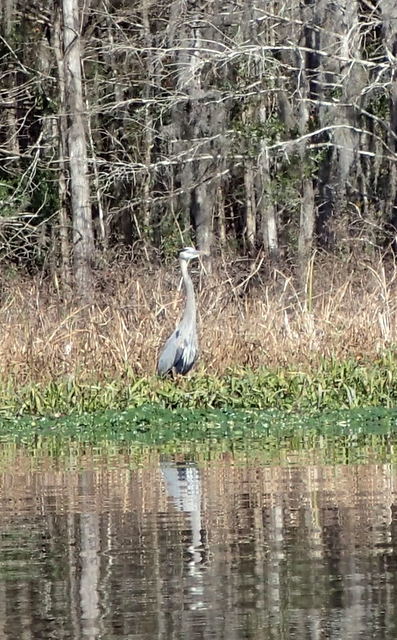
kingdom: Animalia
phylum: Chordata
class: Aves
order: Pelecaniformes
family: Ardeidae
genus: Ardea
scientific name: Ardea herodias
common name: Great blue heron
